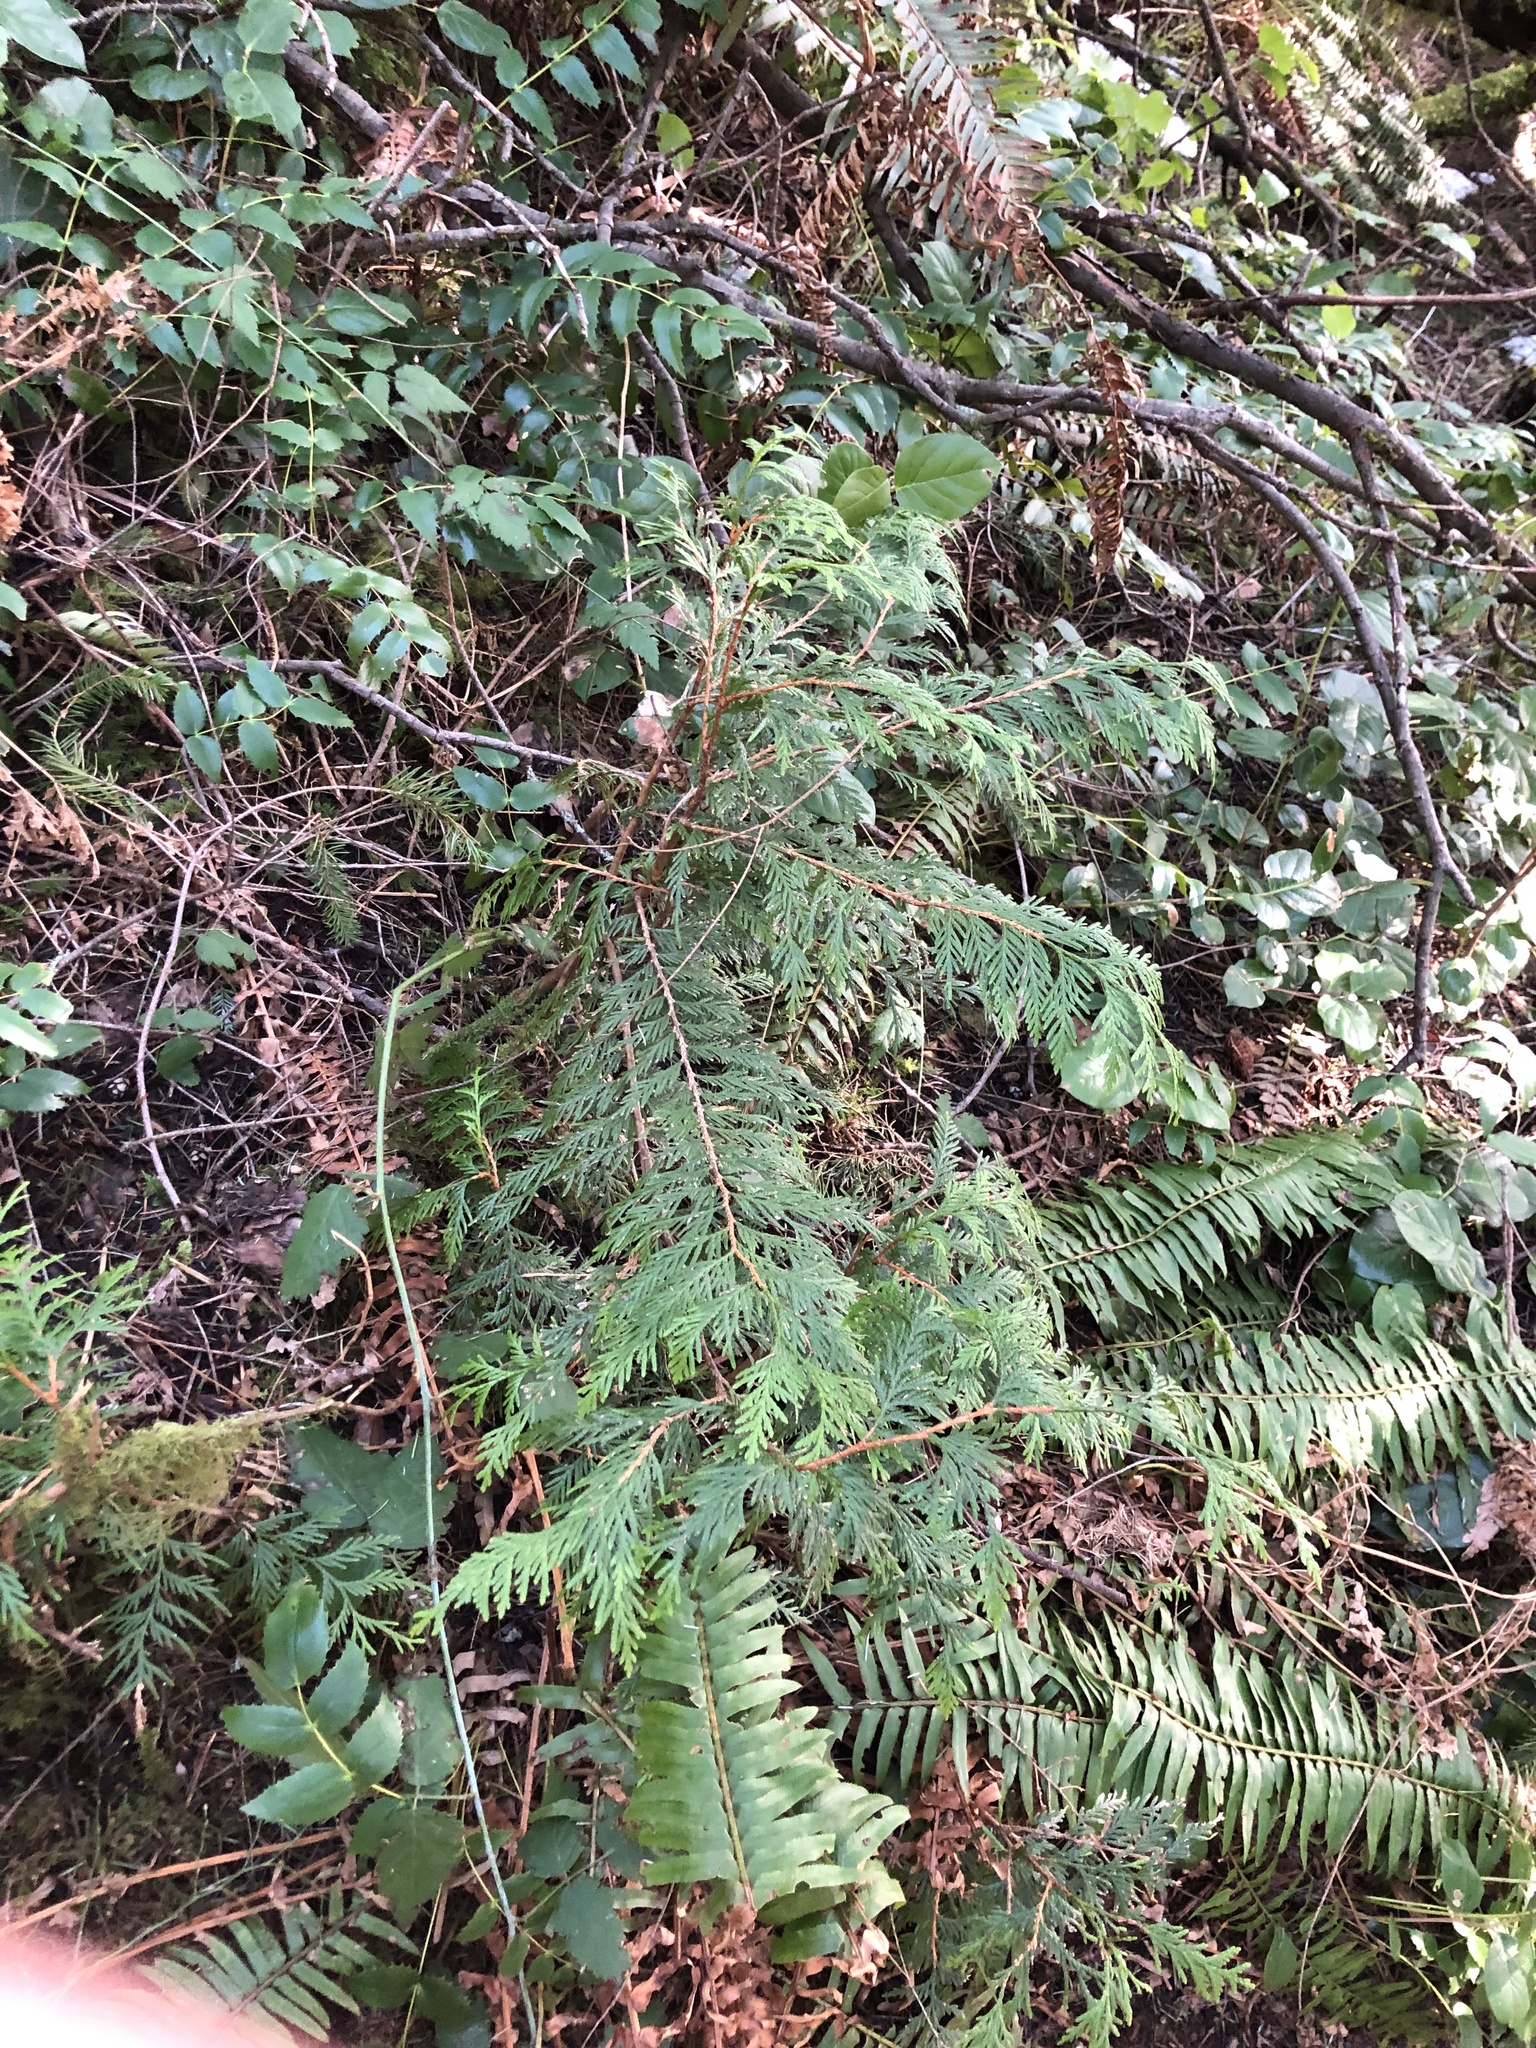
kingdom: Plantae
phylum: Tracheophyta
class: Pinopsida
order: Pinales
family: Cupressaceae
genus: Thuja
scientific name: Thuja plicata
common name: Western red-cedar
